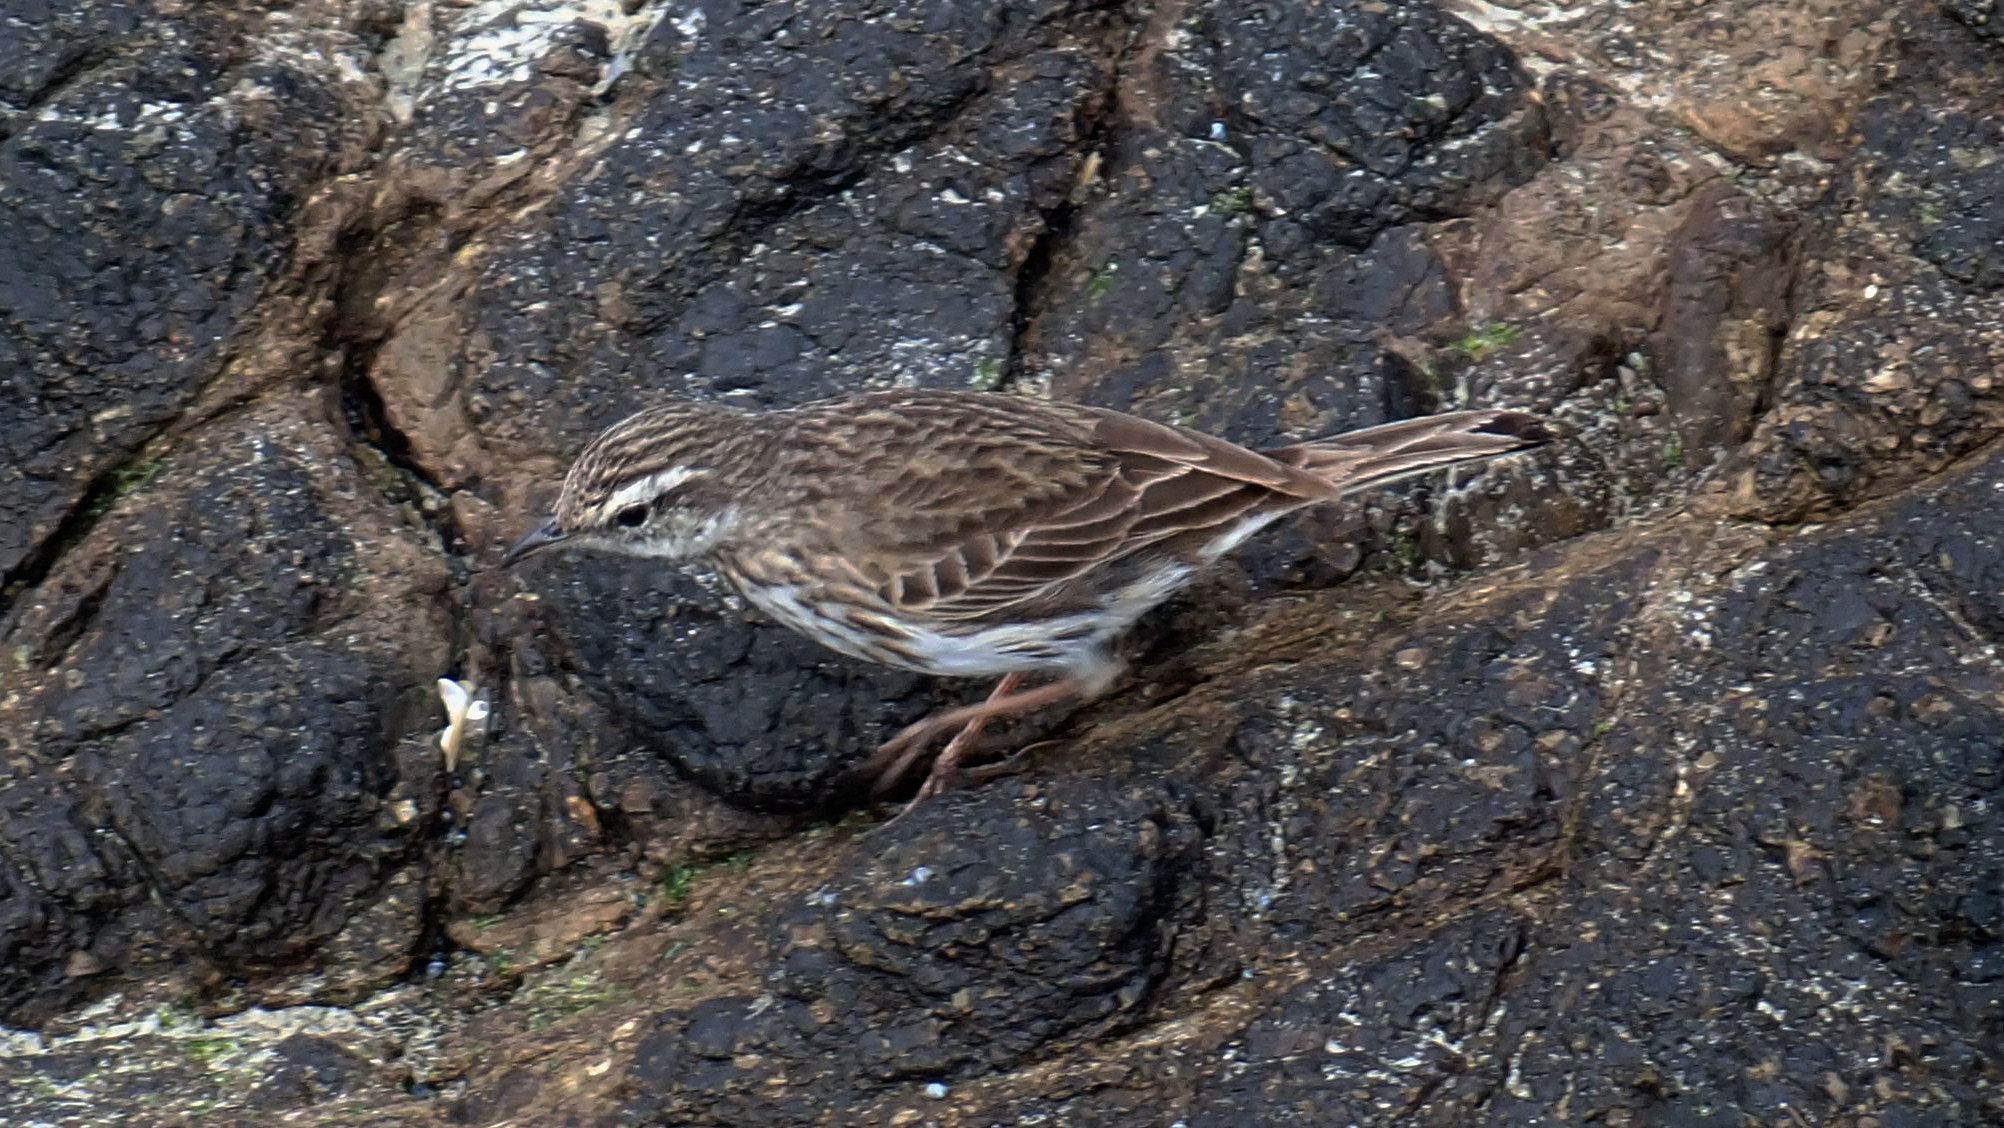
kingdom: Animalia
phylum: Chordata
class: Aves
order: Passeriformes
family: Motacillidae
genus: Anthus
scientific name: Anthus novaeseelandiae
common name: New zealand pipit
